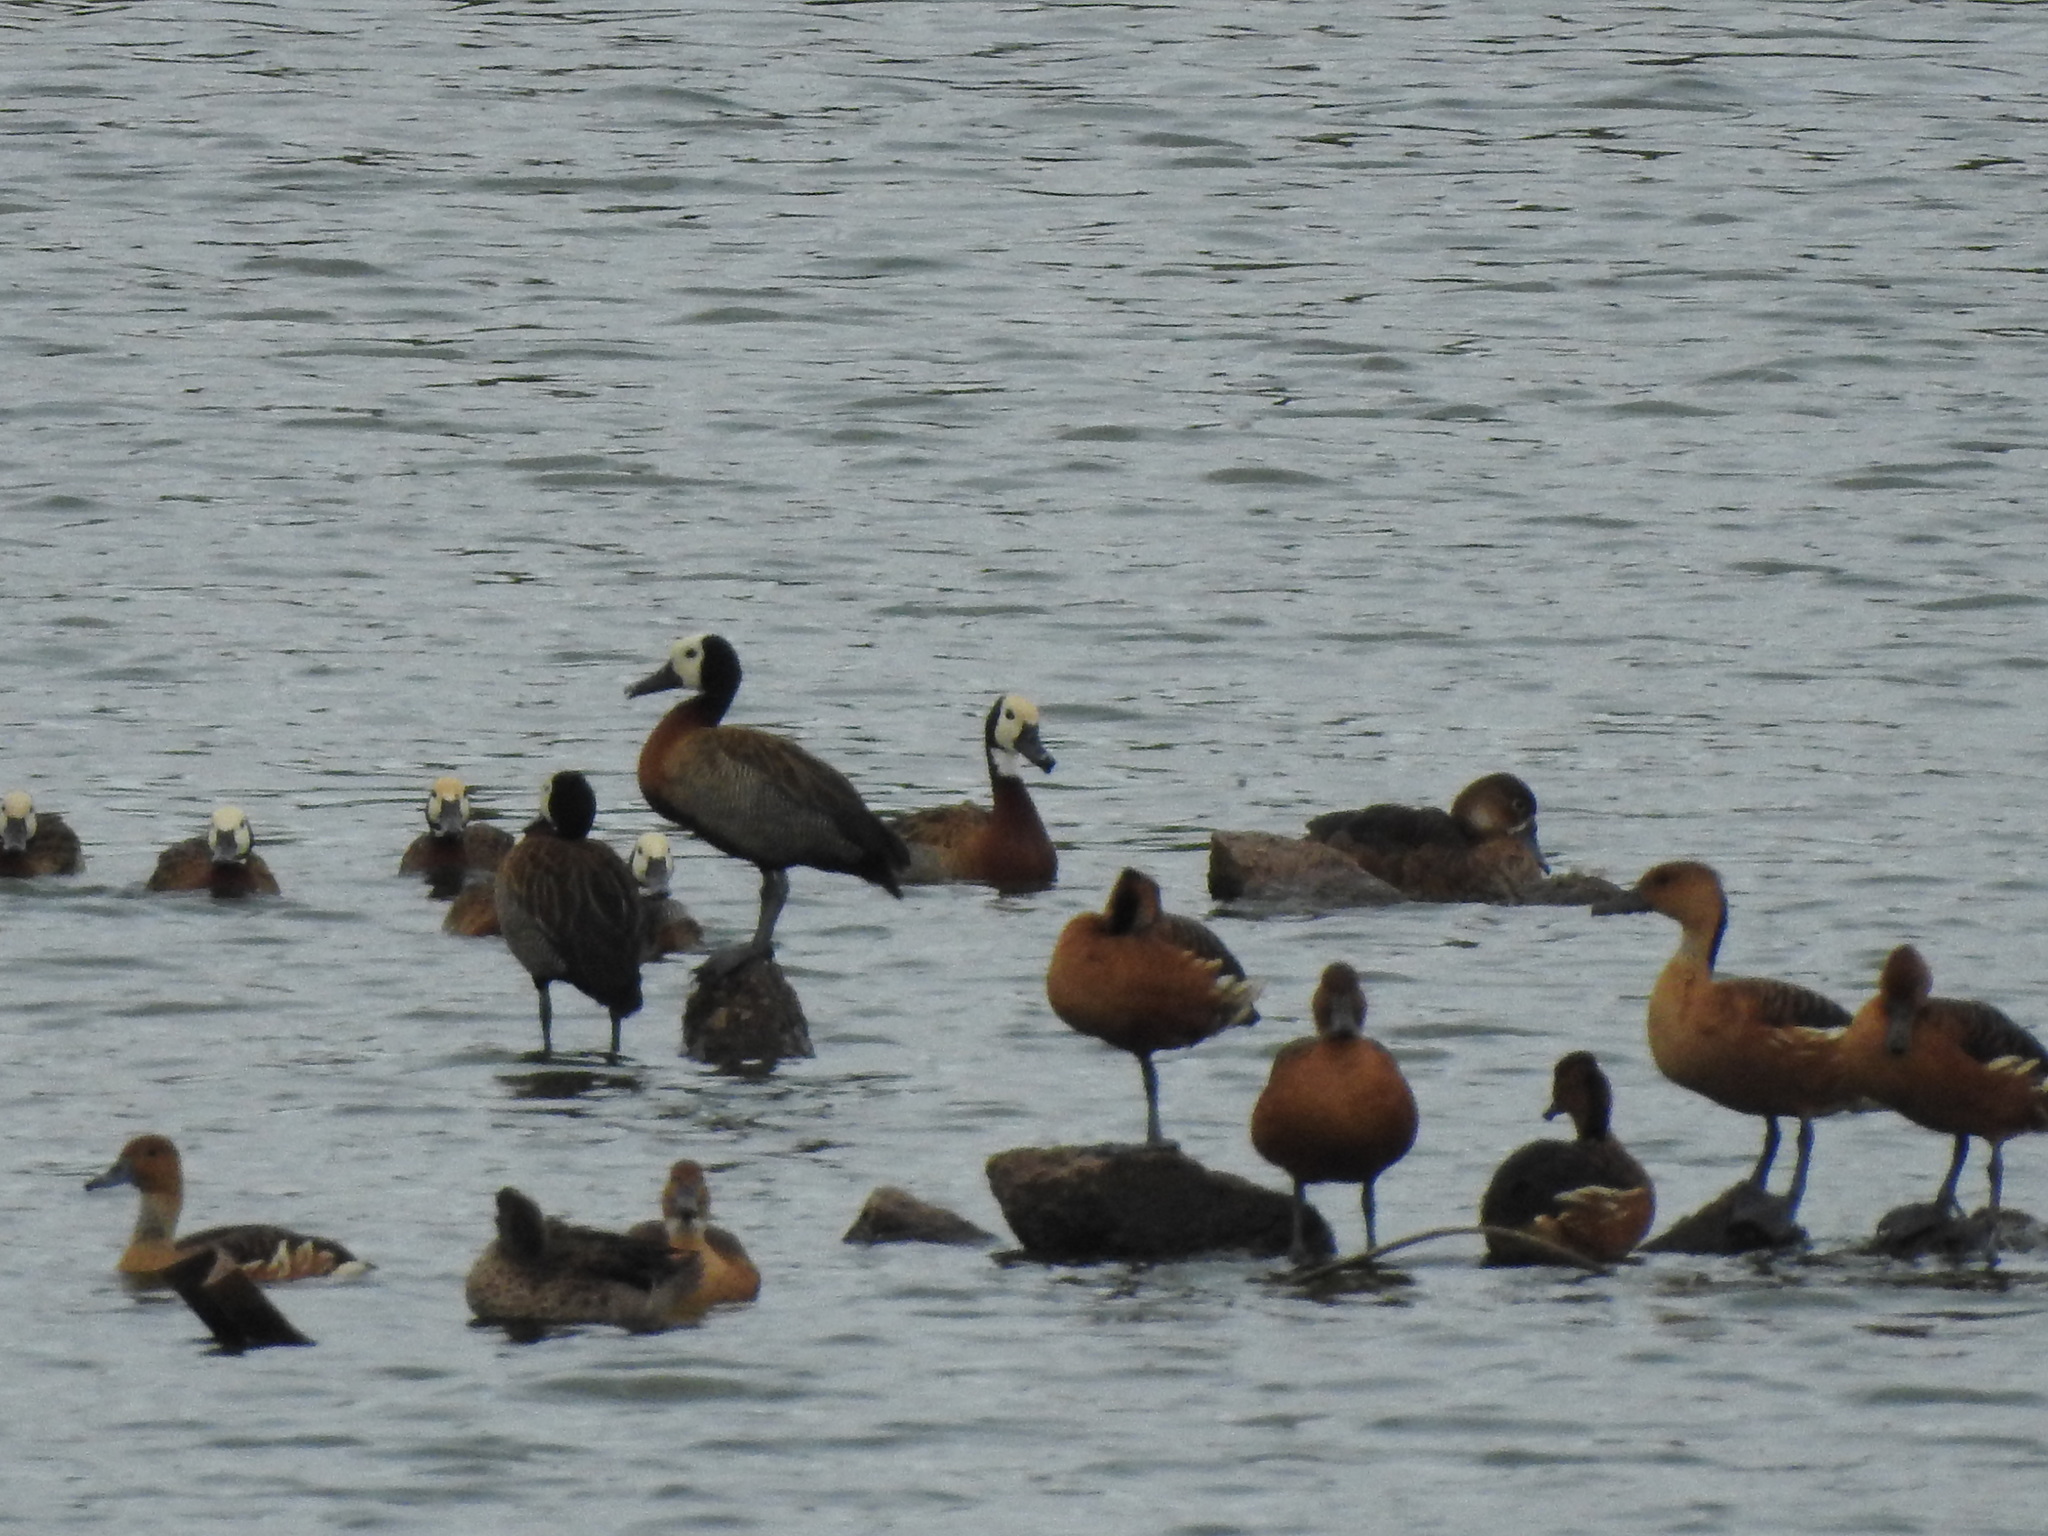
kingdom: Animalia
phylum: Chordata
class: Aves
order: Anseriformes
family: Anatidae
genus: Dendrocygna
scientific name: Dendrocygna viduata
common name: White-faced whistling duck
